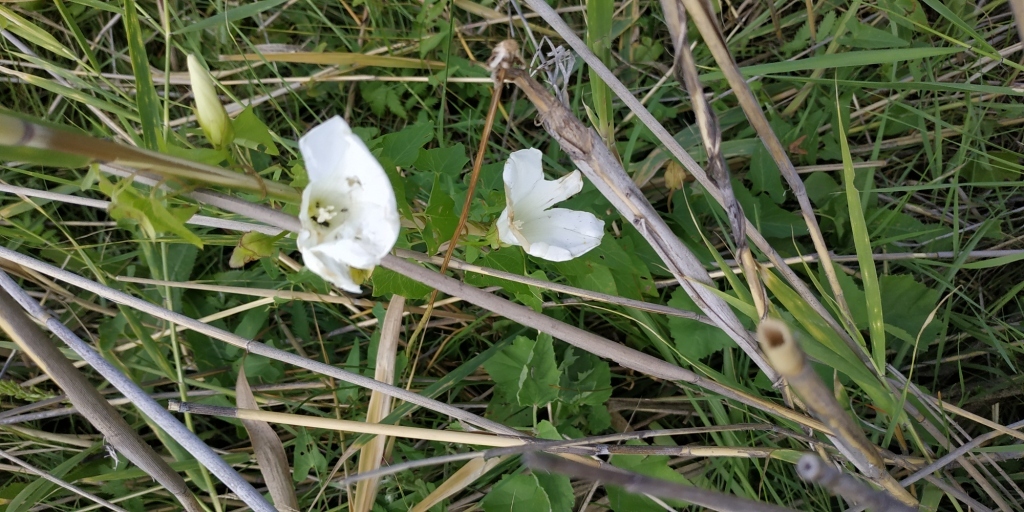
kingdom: Plantae
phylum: Tracheophyta
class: Magnoliopsida
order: Solanales
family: Convolvulaceae
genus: Calystegia
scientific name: Calystegia sepium
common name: Hedge bindweed
